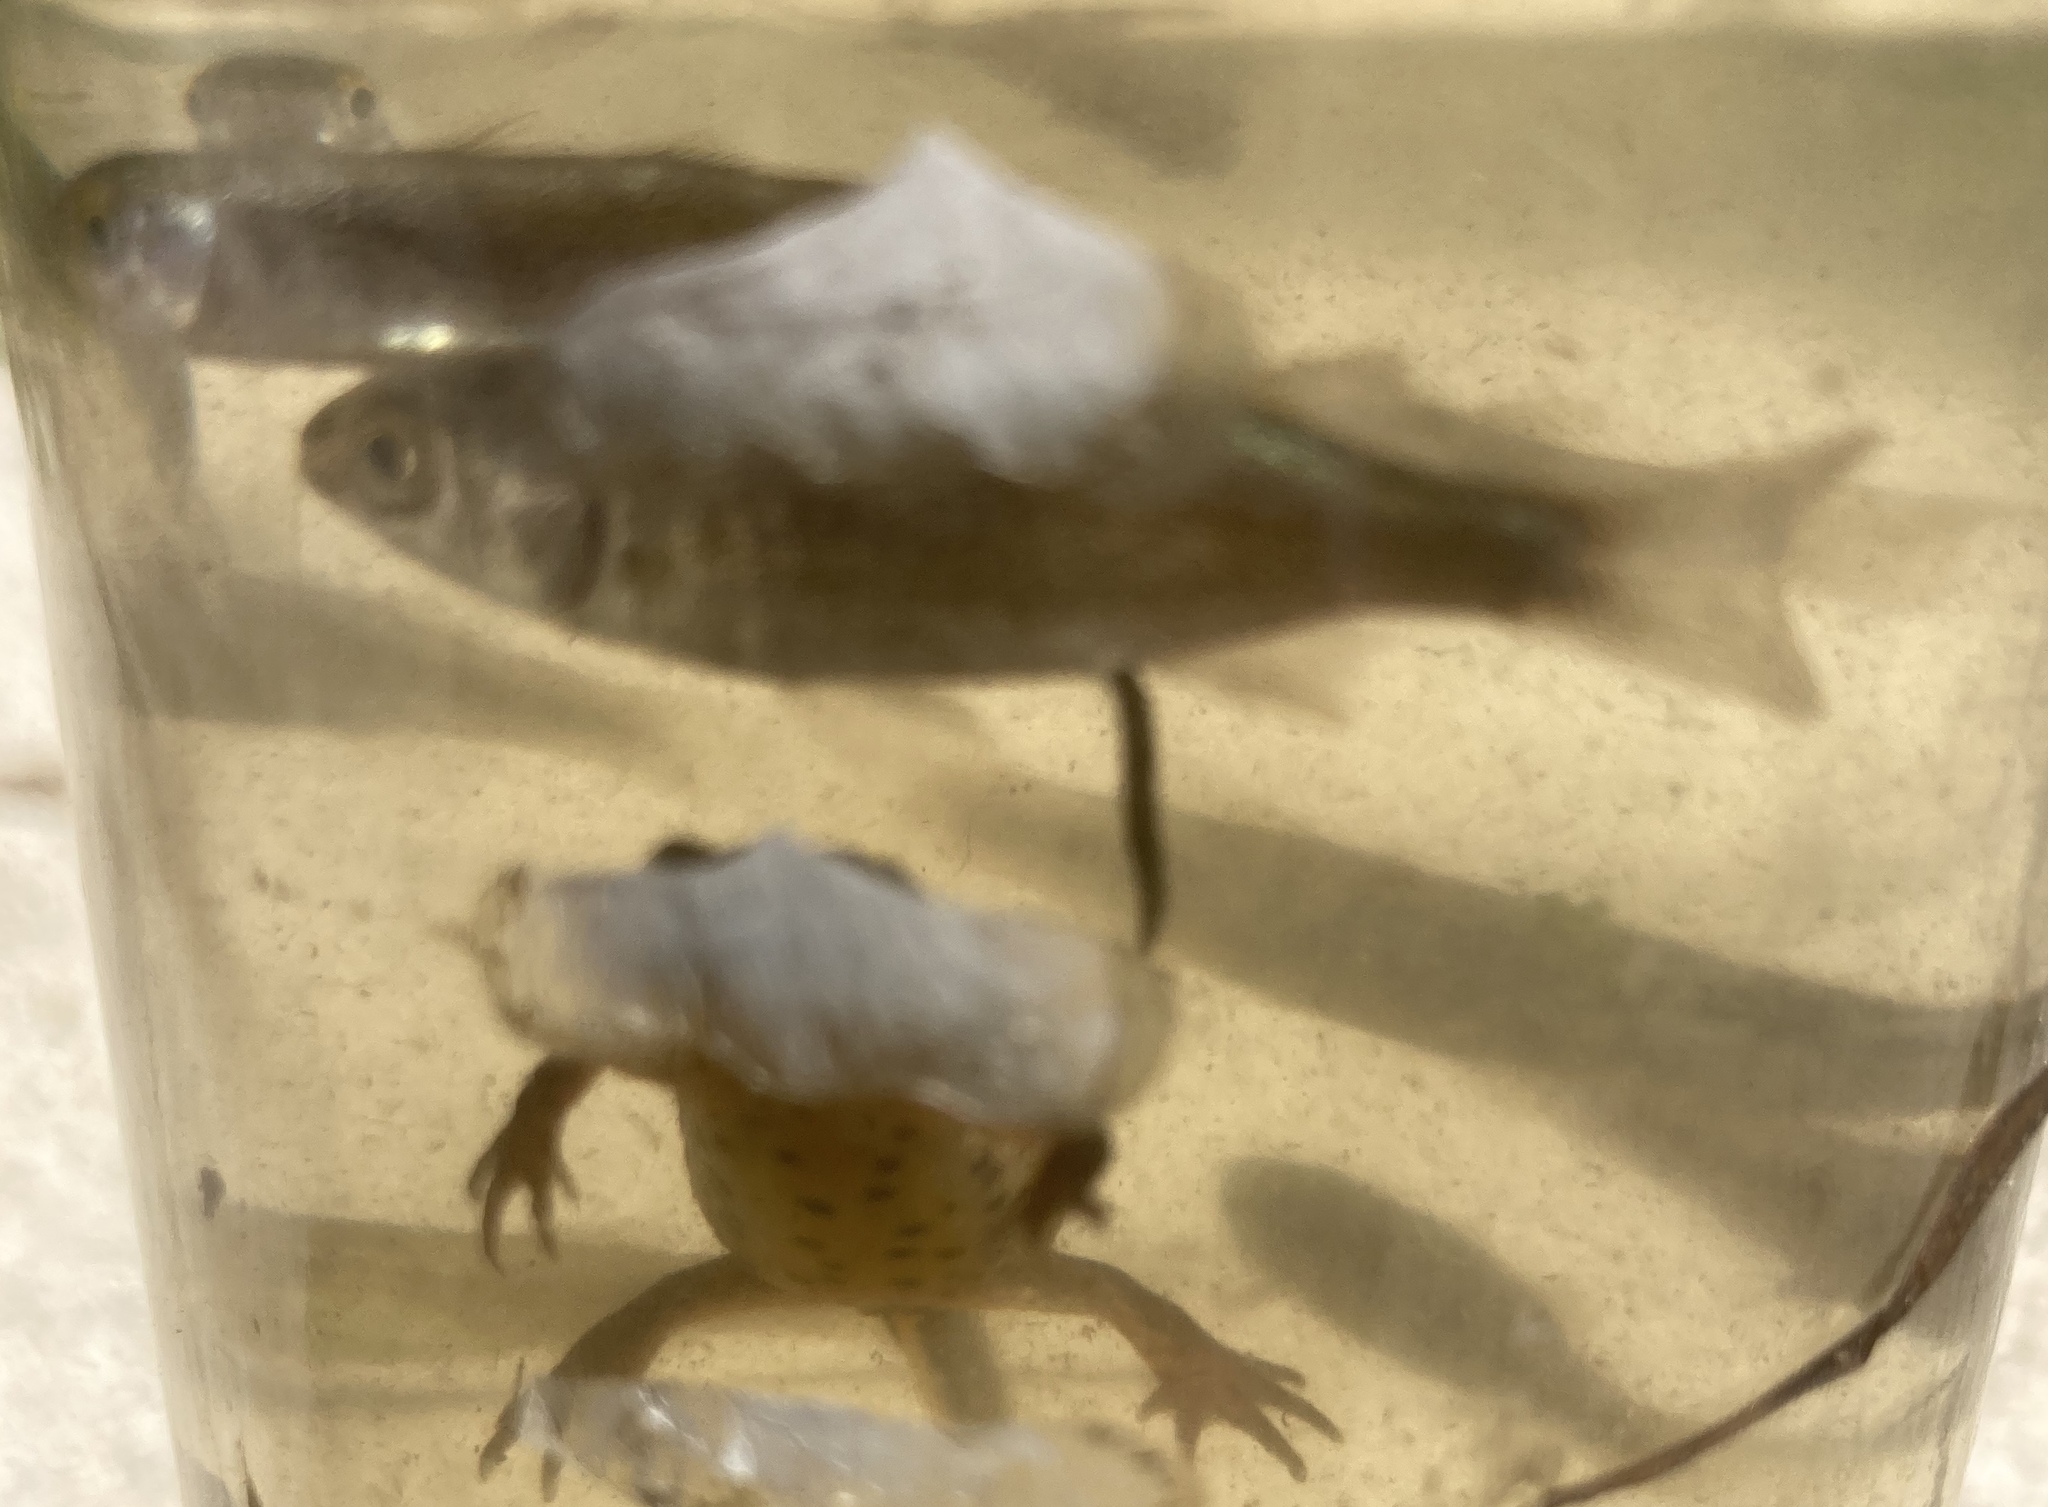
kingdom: Animalia
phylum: Chordata
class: Amphibia
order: Caudata
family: Salamandridae
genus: Lissotriton
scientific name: Lissotriton graecus
